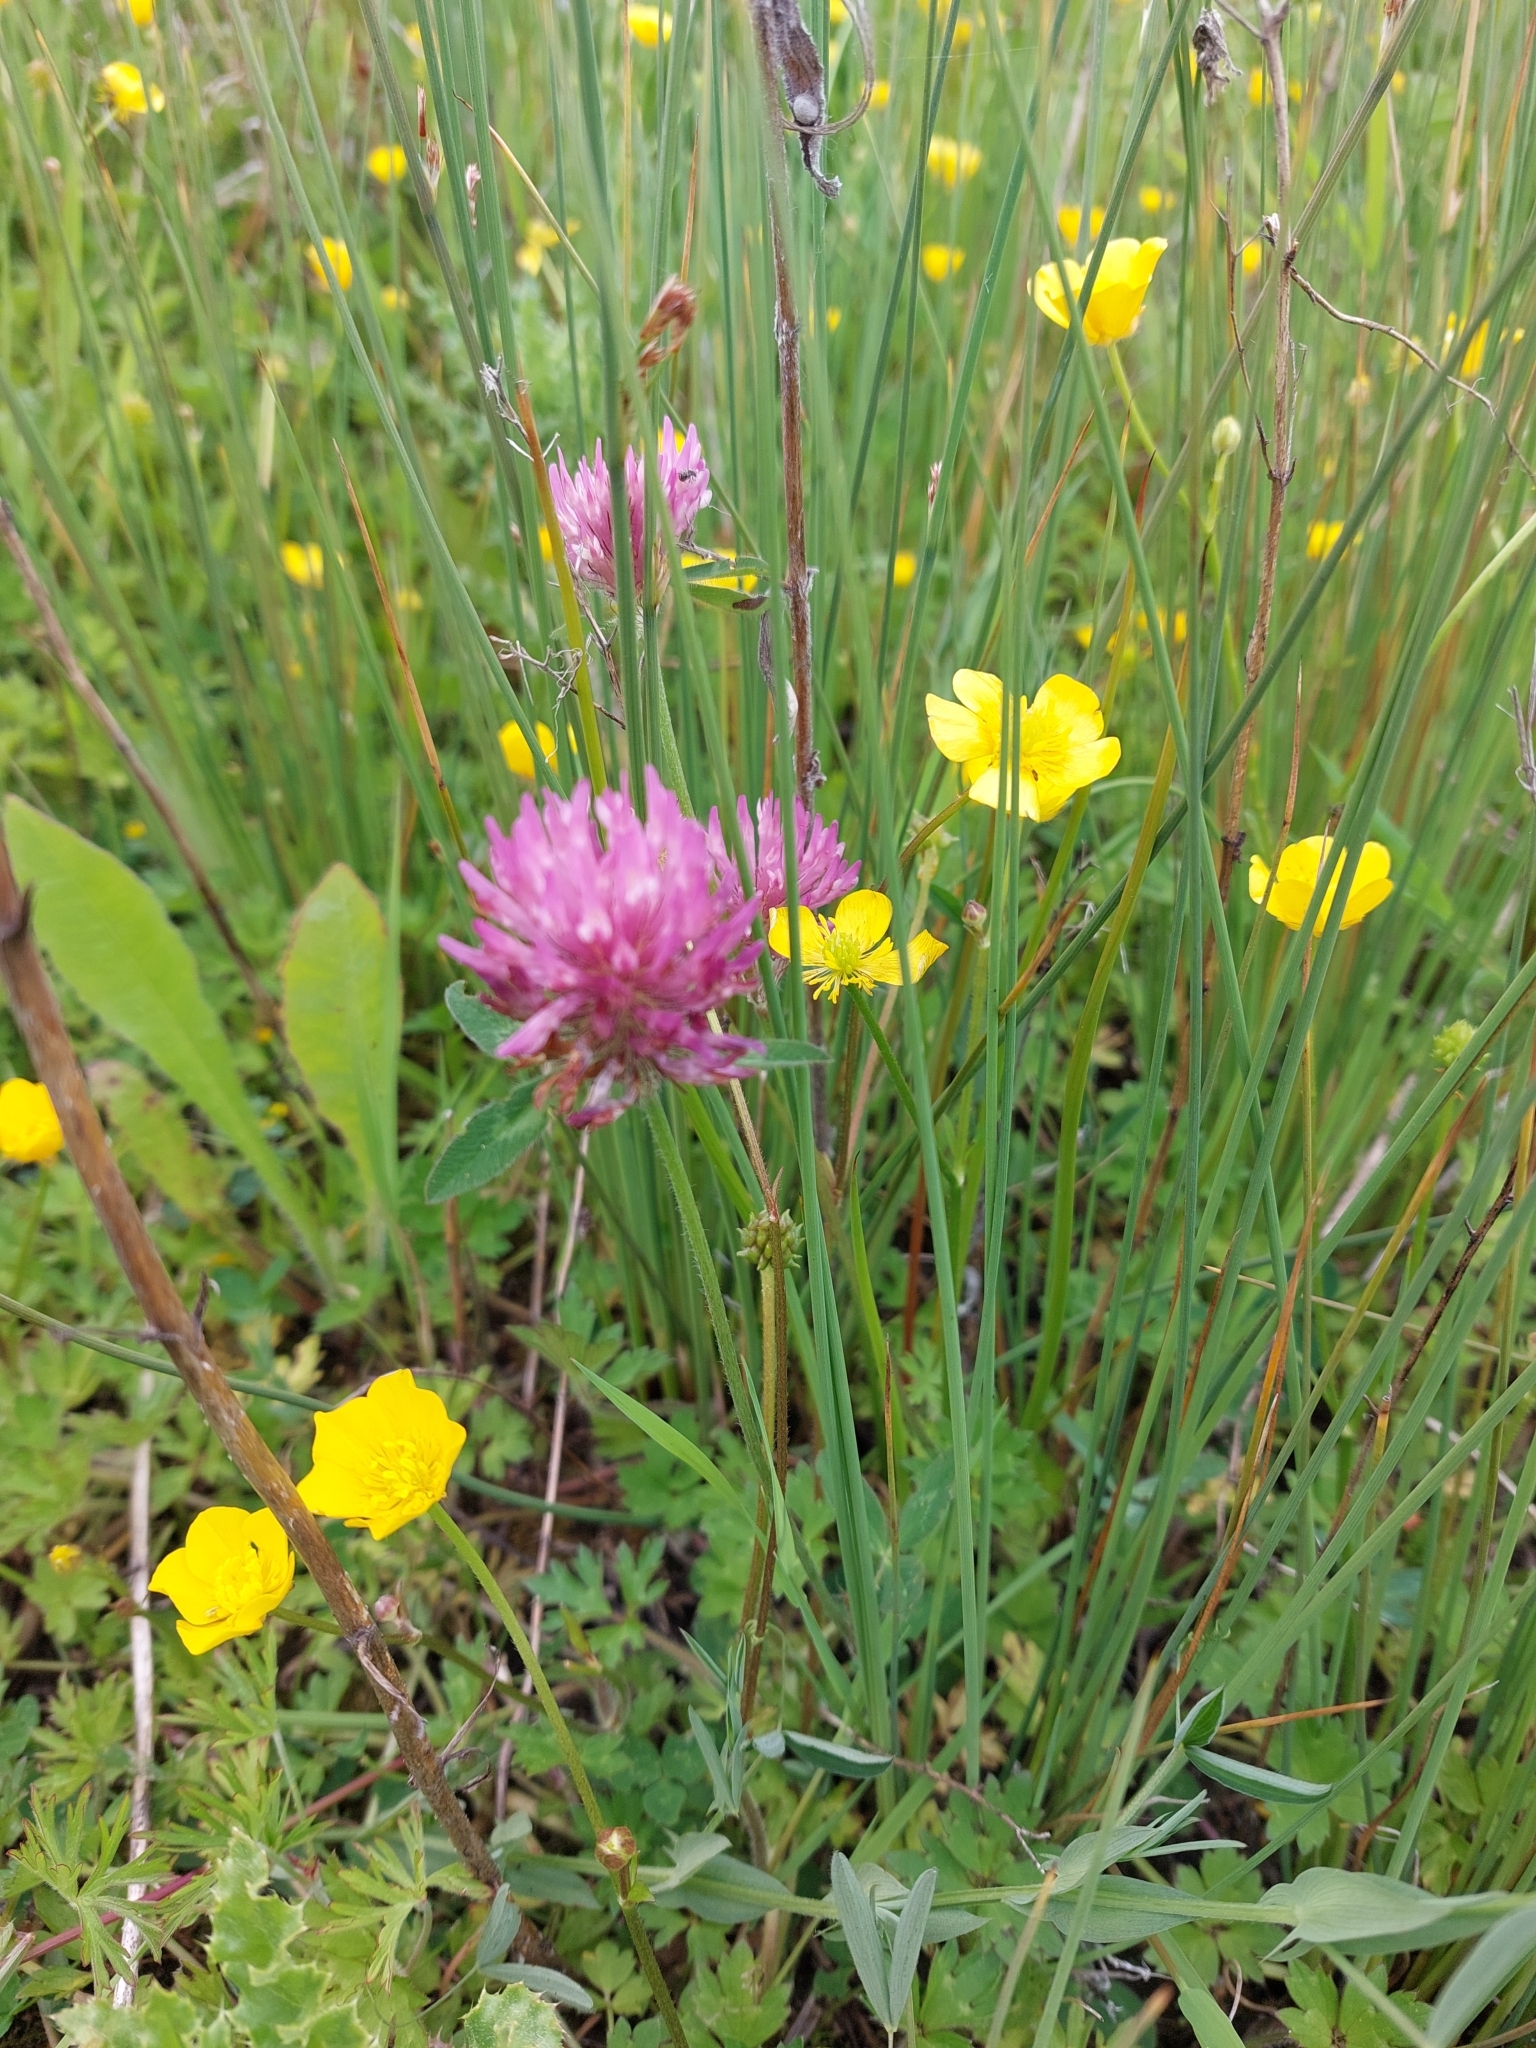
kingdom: Plantae
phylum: Tracheophyta
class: Magnoliopsida
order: Fabales
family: Fabaceae
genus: Trifolium
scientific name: Trifolium pratense
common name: Red clover
